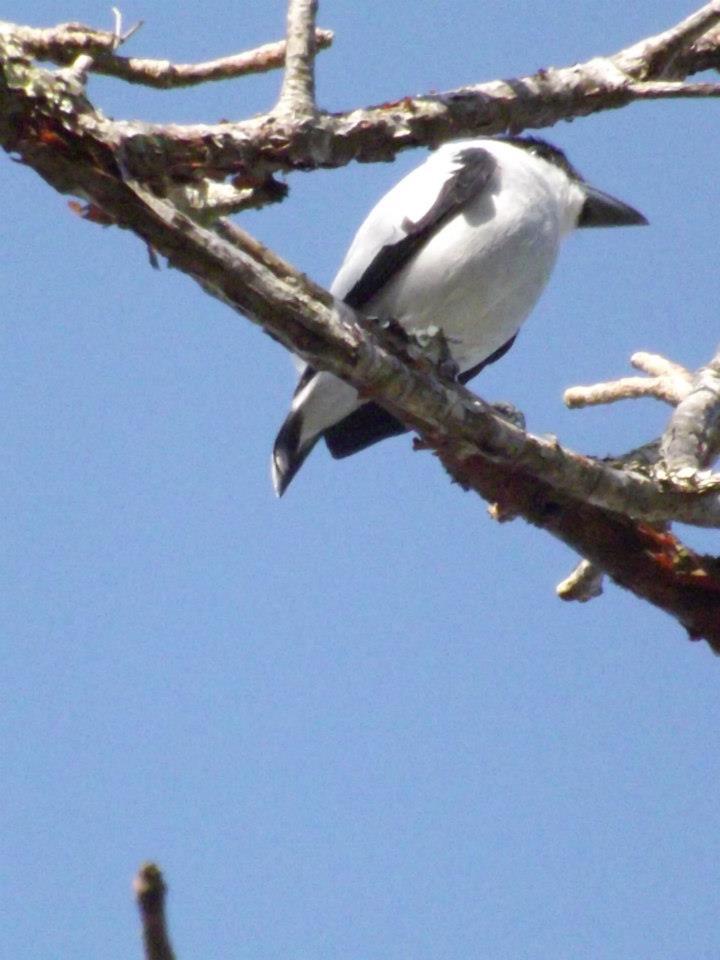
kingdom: Animalia
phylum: Chordata
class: Aves
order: Passeriformes
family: Cotingidae
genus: Tityra
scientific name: Tityra inquisitor
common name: Black-crowned tityra
